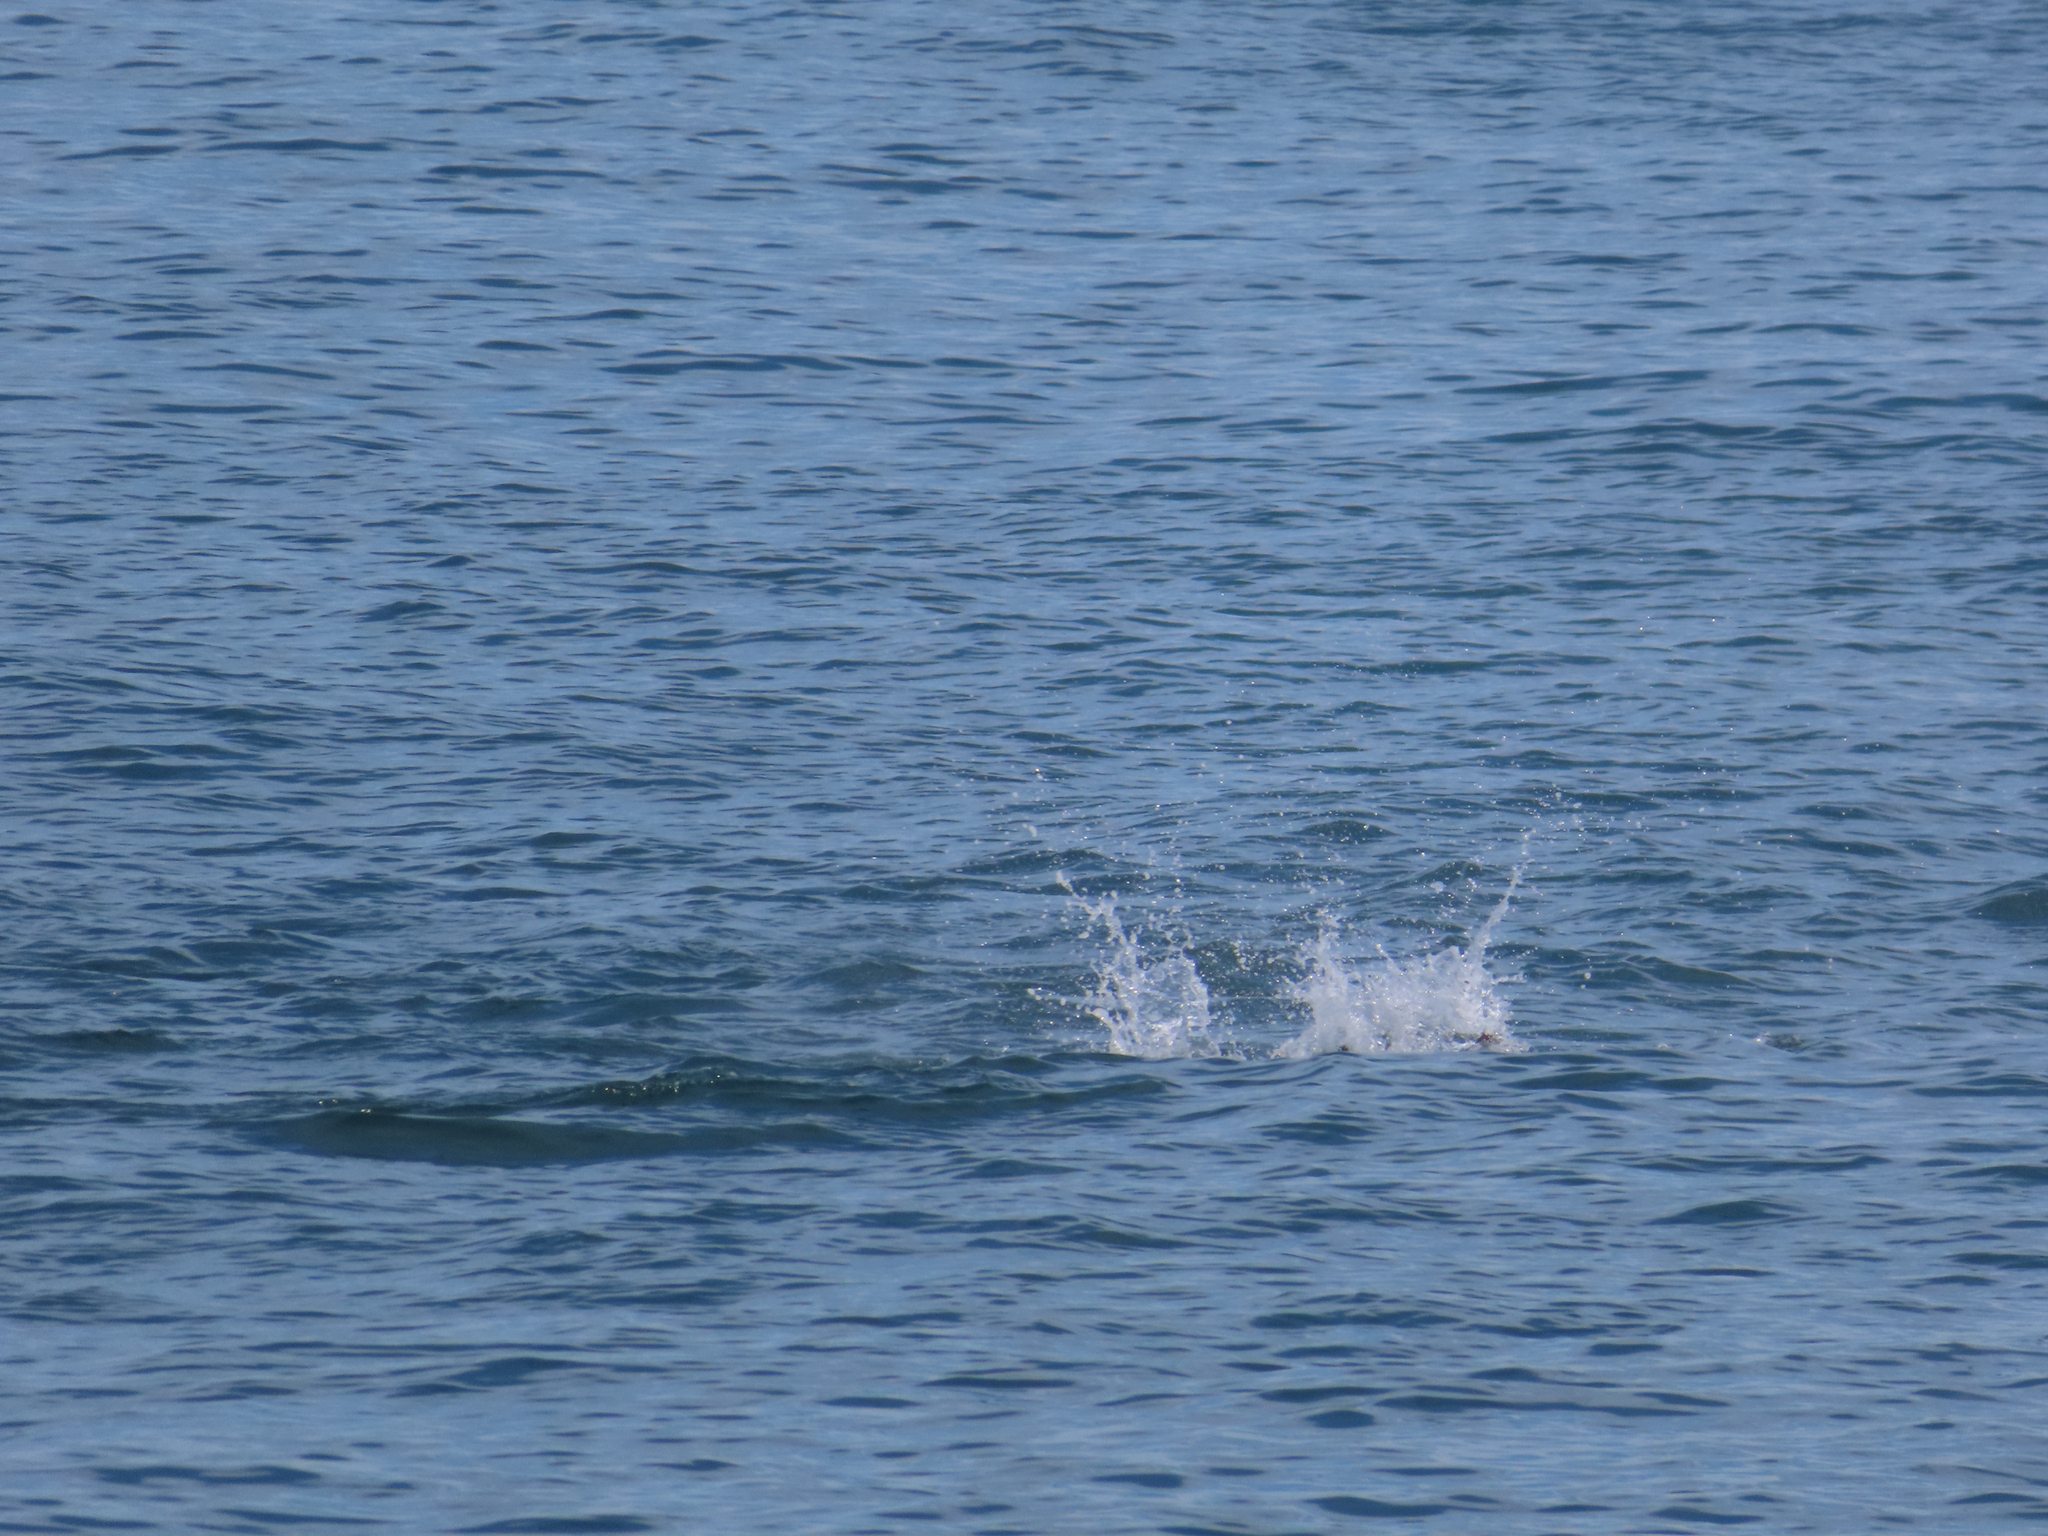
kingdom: Animalia
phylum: Chordata
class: Mammalia
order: Cetacea
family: Delphinidae
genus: Tursiops
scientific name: Tursiops truncatus
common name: Bottlenose dolphin
